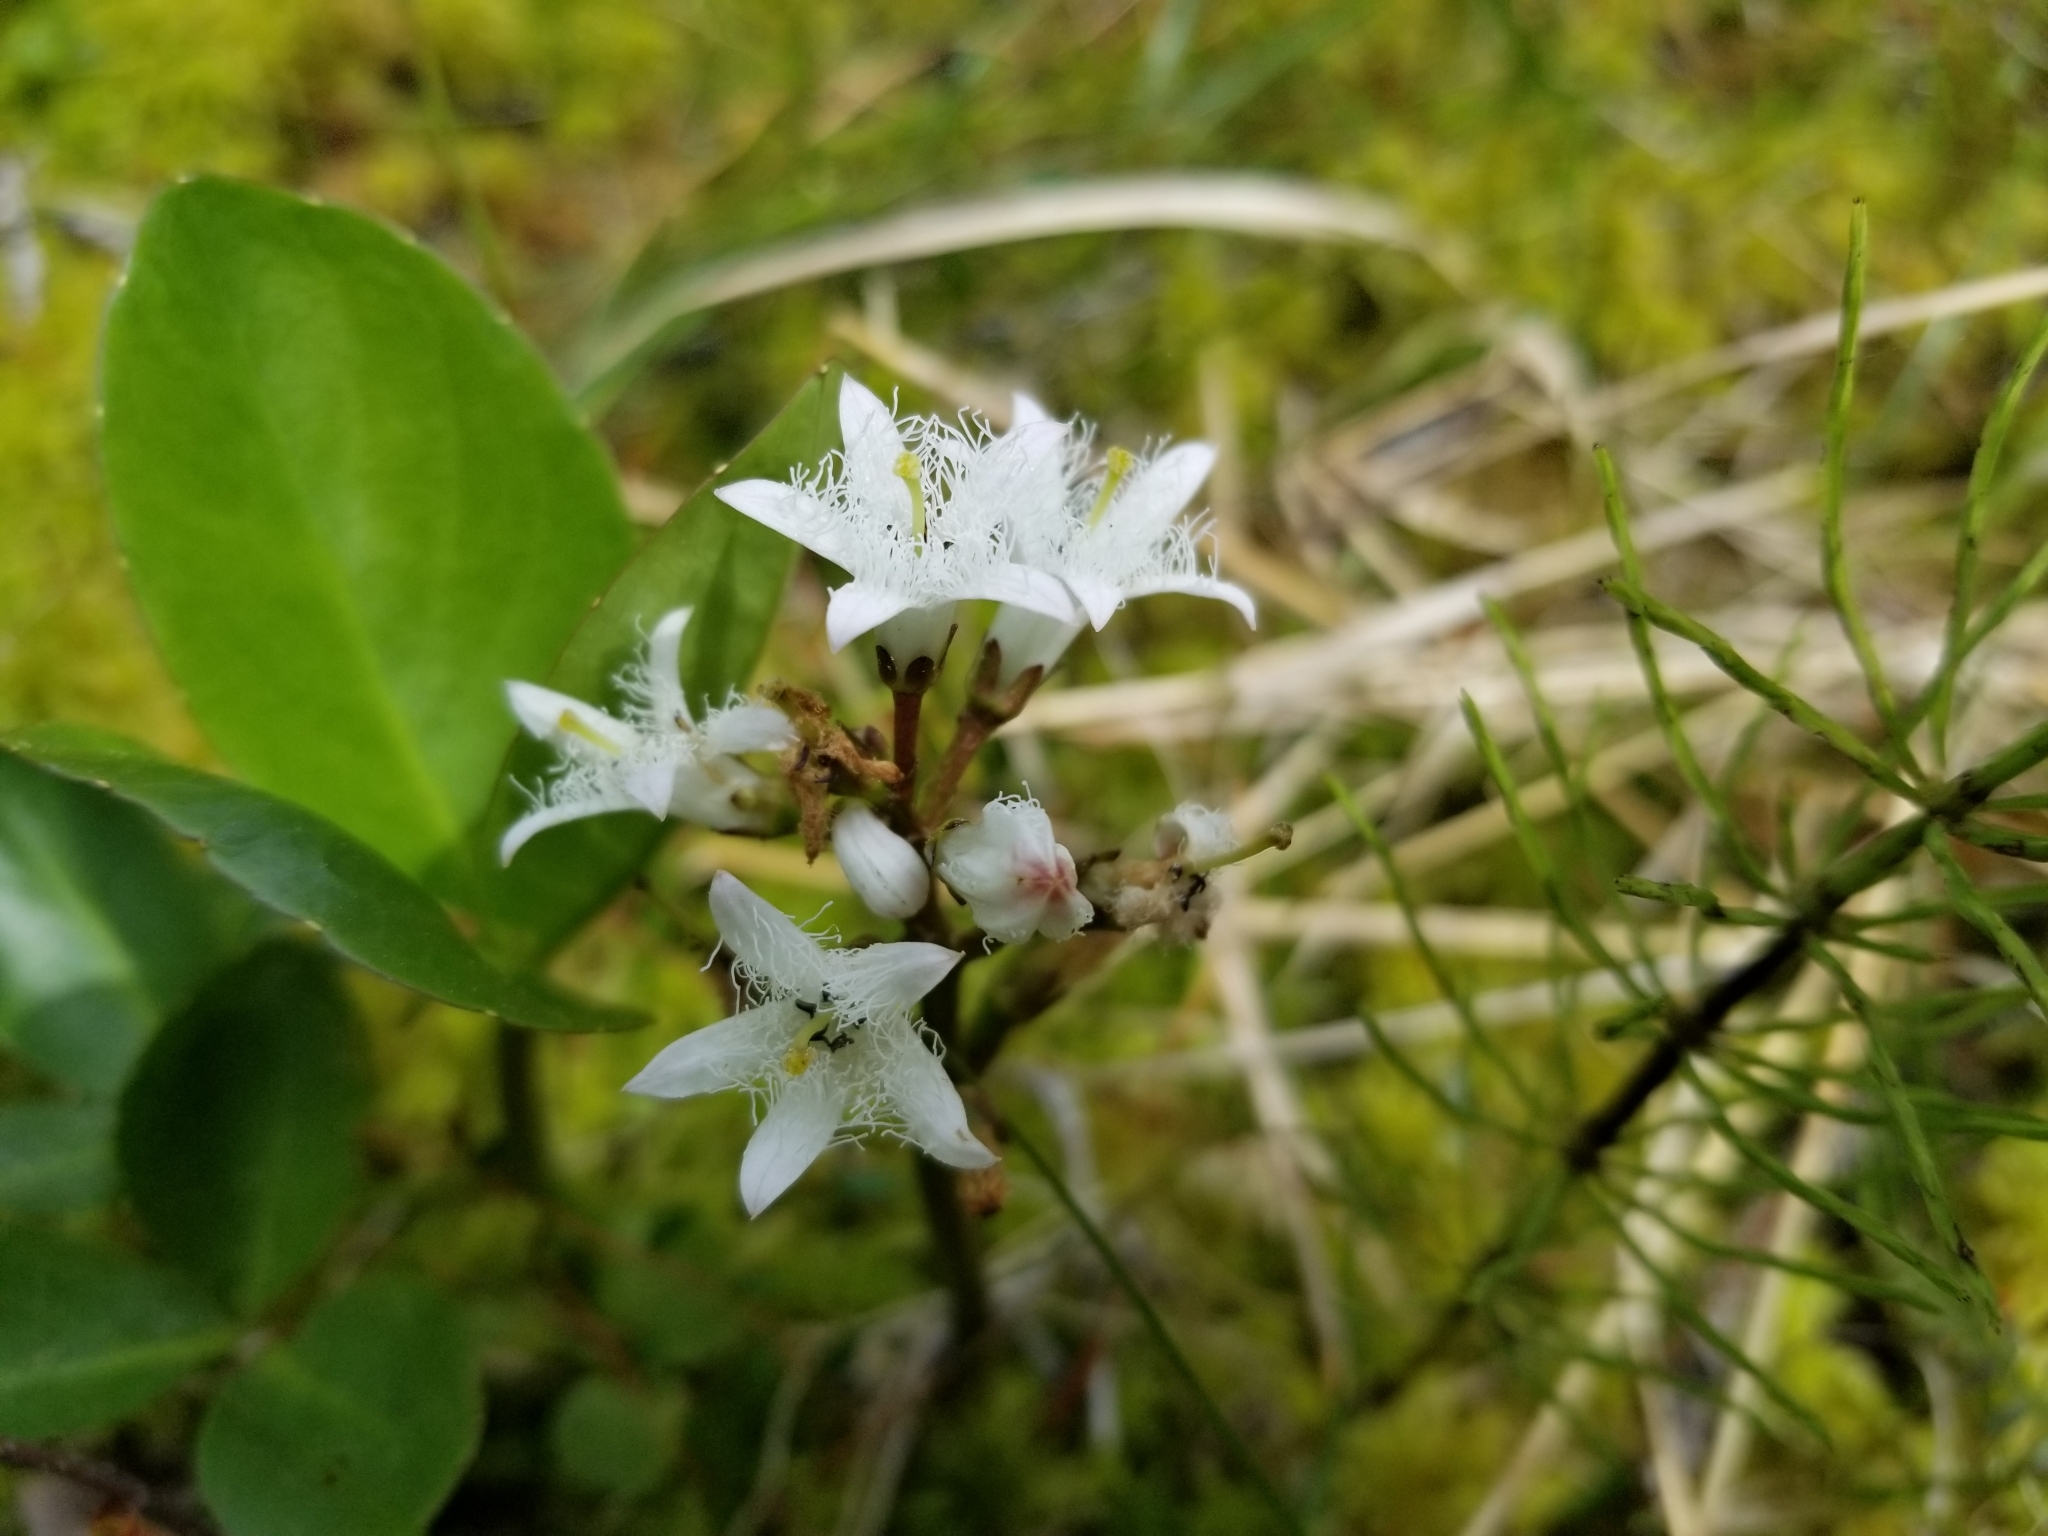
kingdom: Plantae
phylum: Tracheophyta
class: Magnoliopsida
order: Asterales
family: Menyanthaceae
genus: Menyanthes
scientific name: Menyanthes trifoliata
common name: Bogbean
